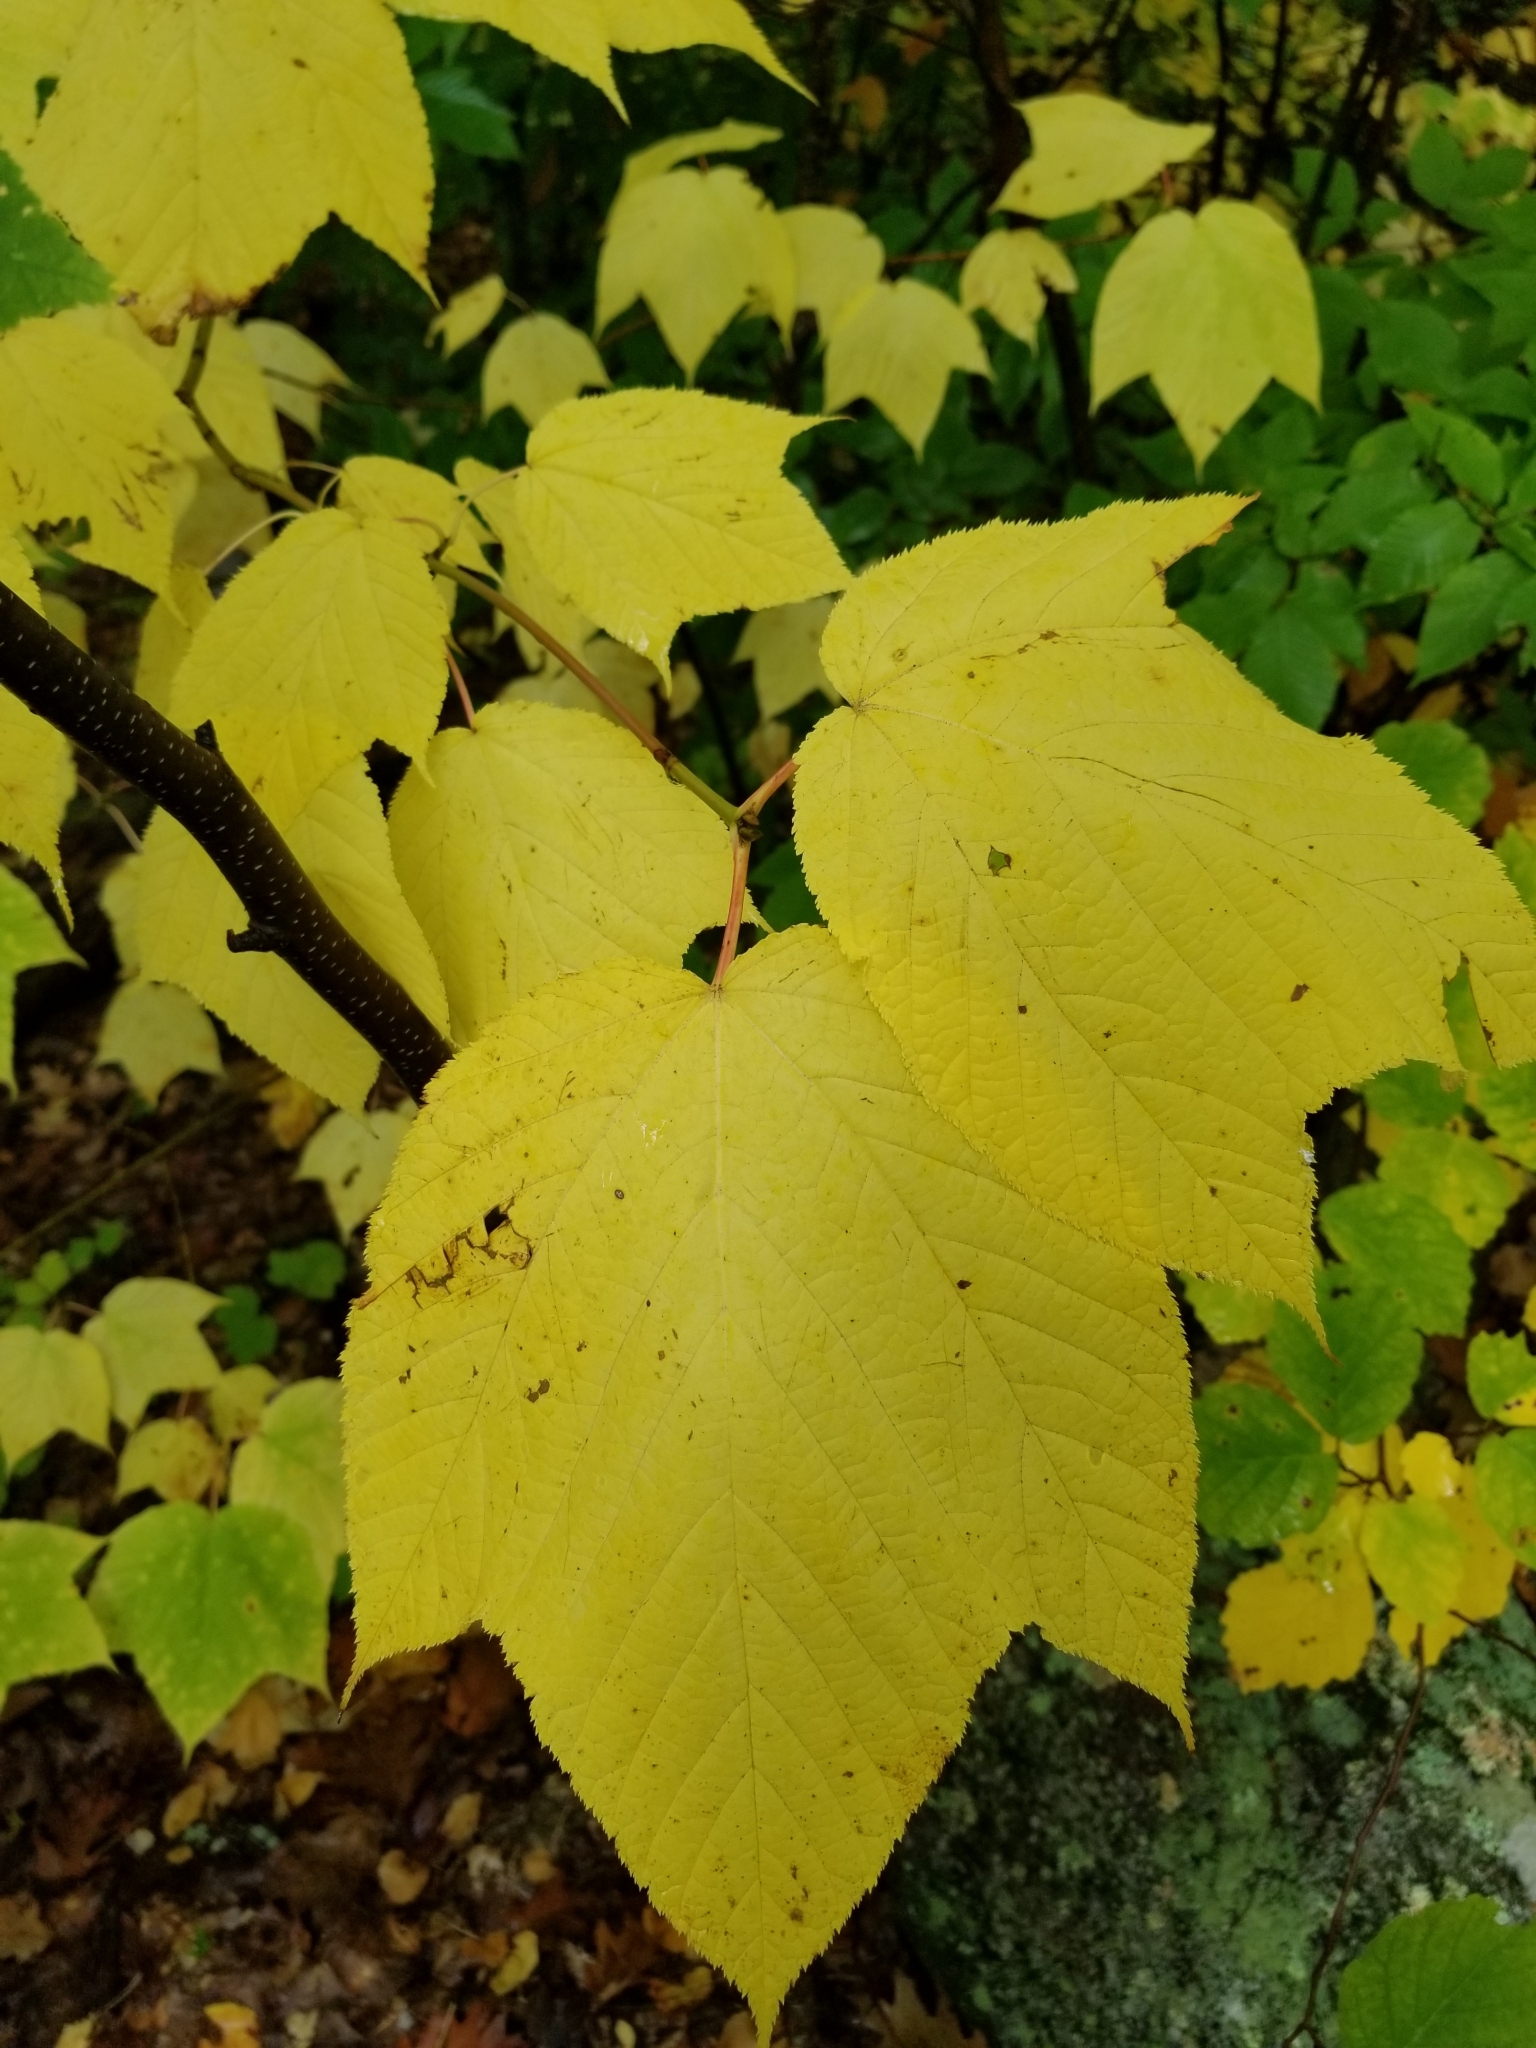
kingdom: Plantae
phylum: Tracheophyta
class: Magnoliopsida
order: Sapindales
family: Sapindaceae
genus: Acer
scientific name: Acer pensylvanicum
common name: Moosewood
